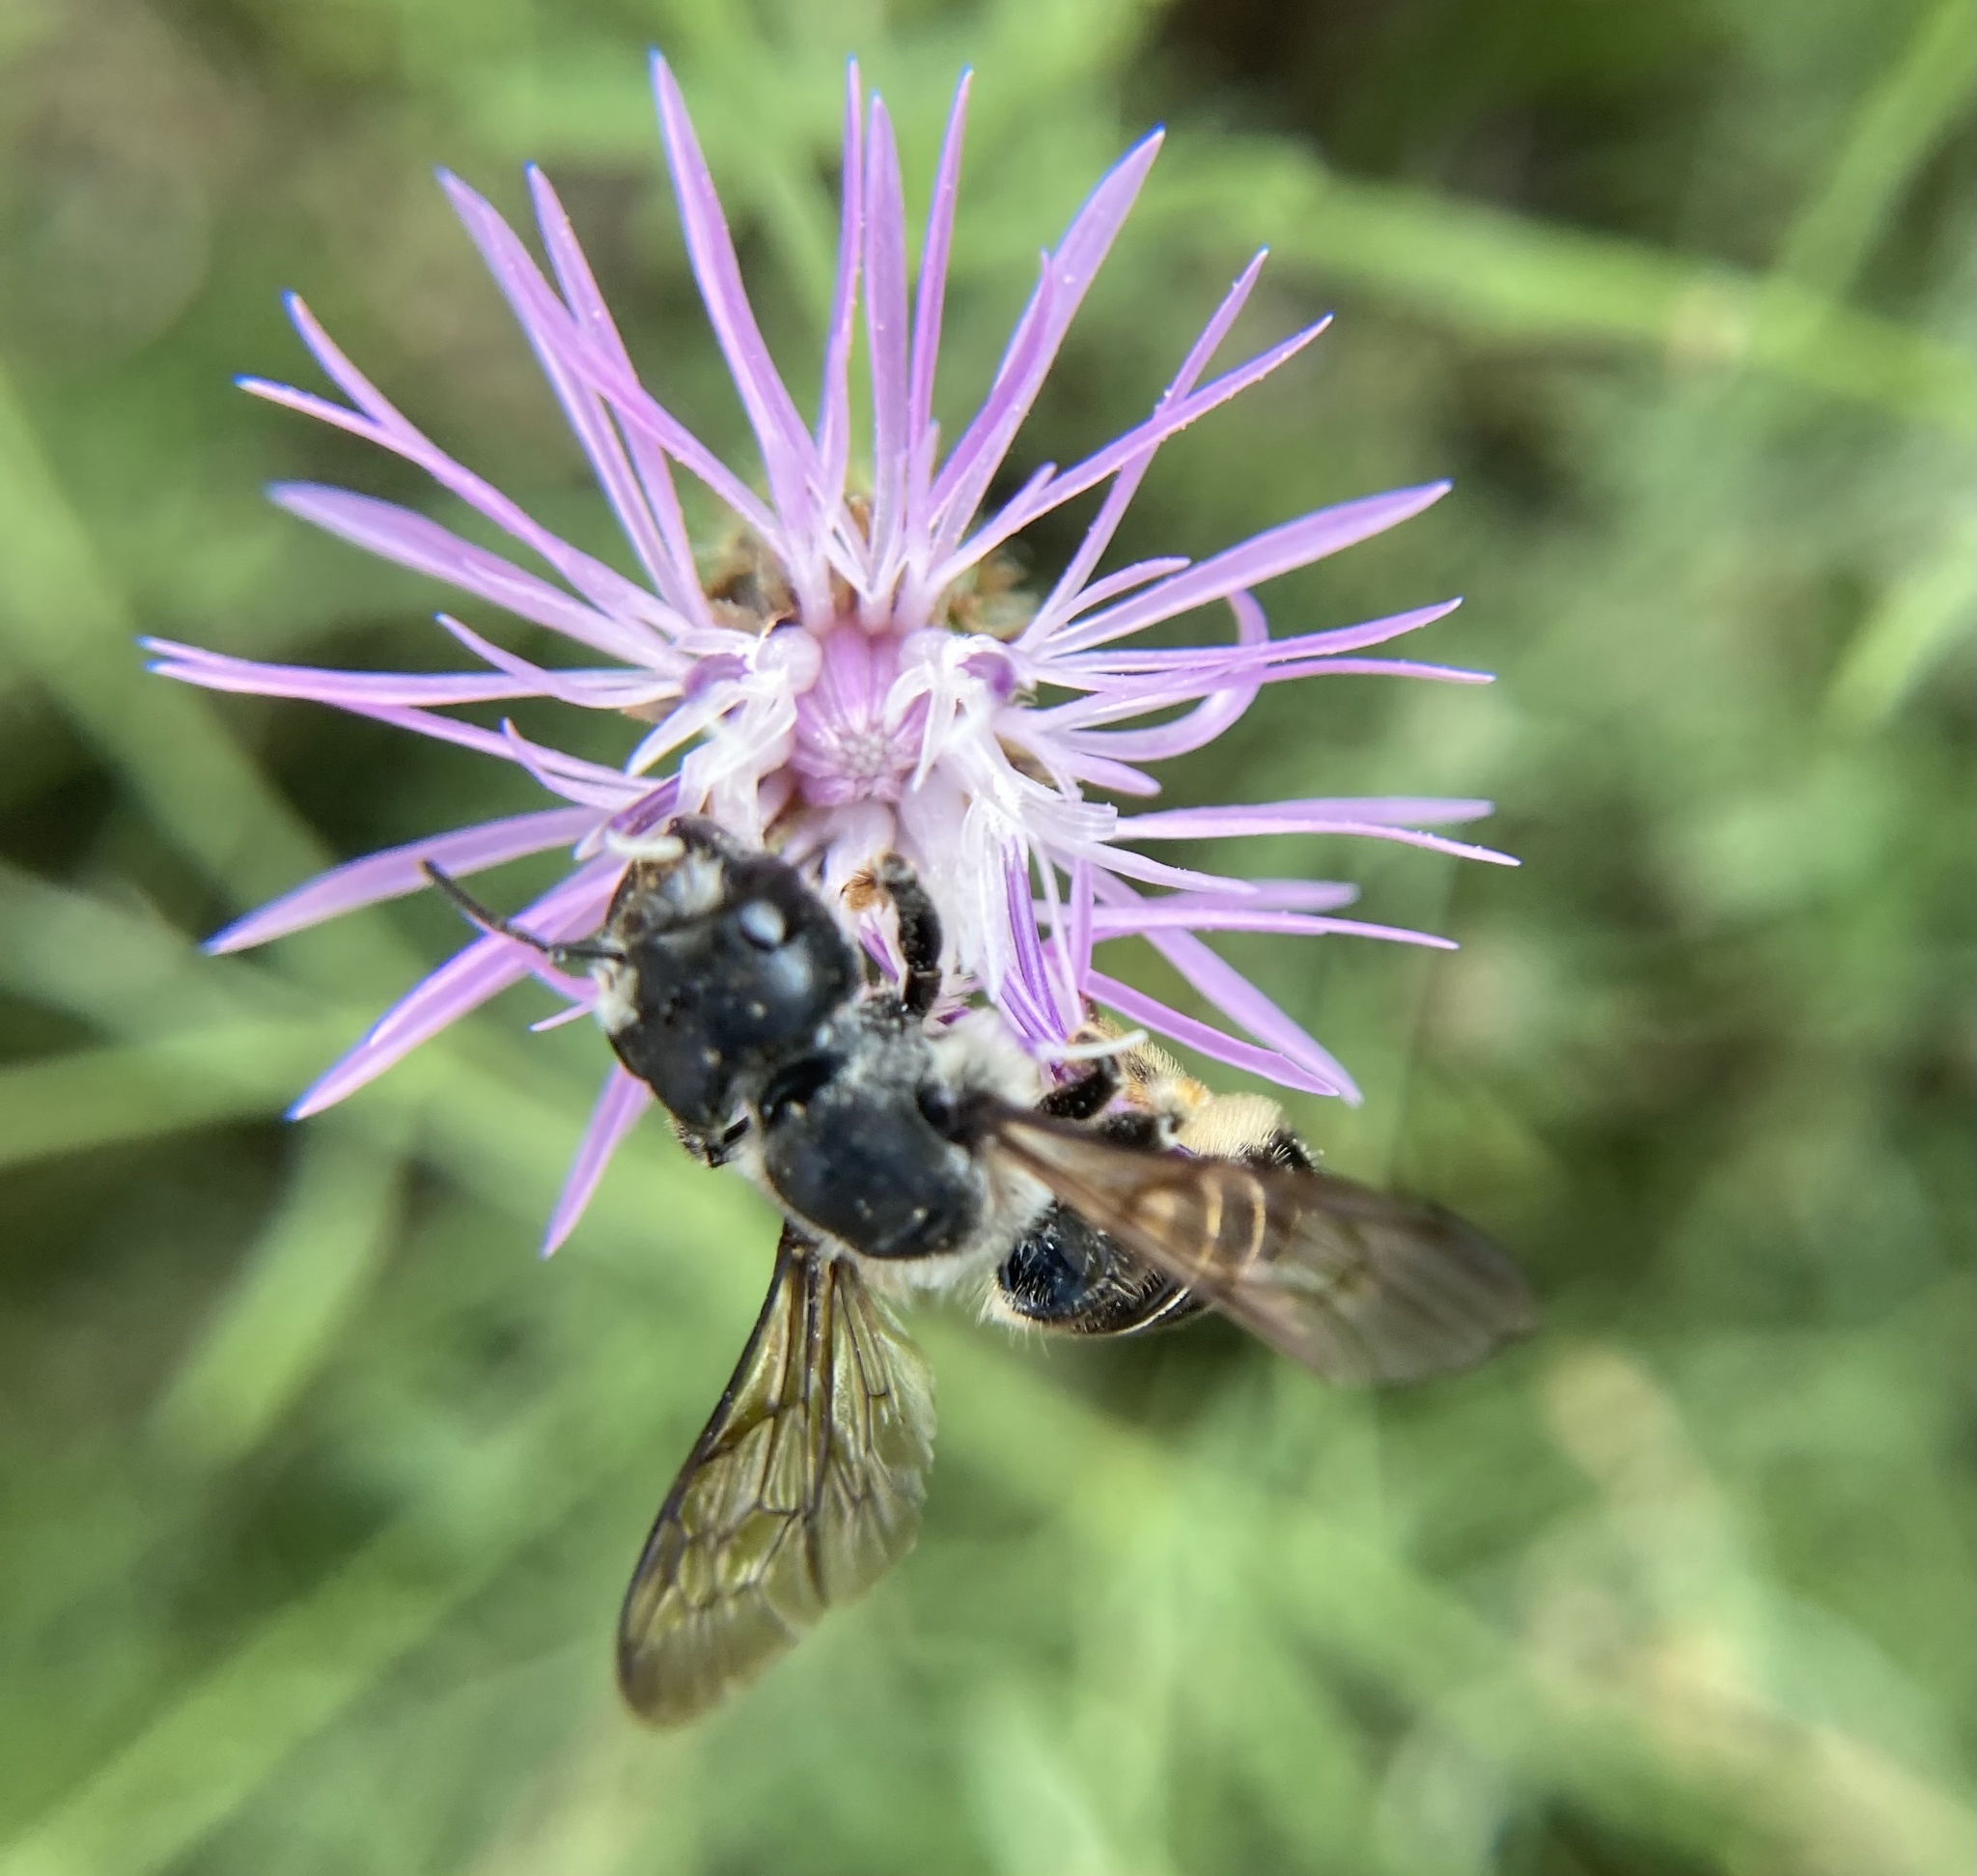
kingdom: Animalia
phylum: Arthropoda
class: Insecta
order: Hymenoptera
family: Megachilidae
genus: Megachile
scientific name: Megachile pugnata
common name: Pugnacious leafcutter bee
